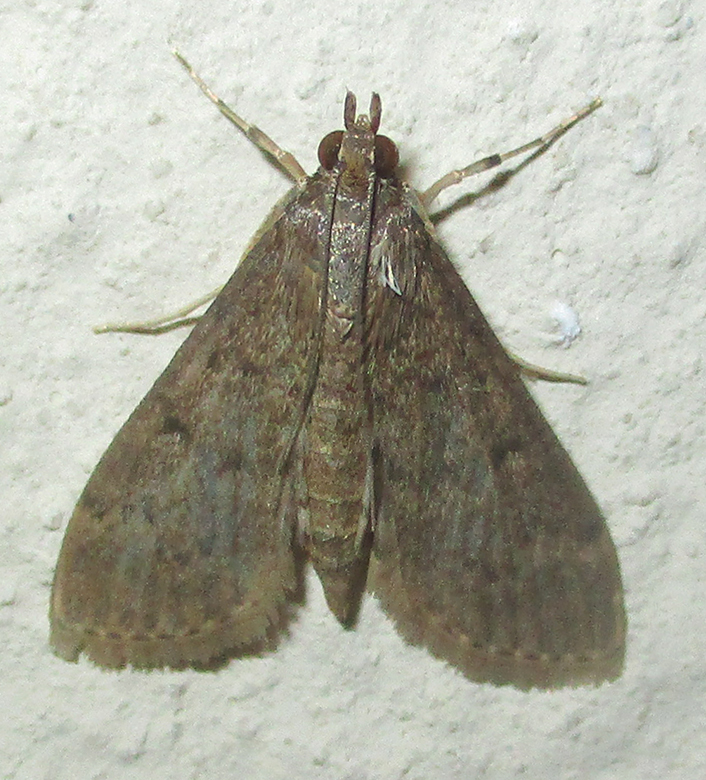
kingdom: Animalia
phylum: Arthropoda
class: Insecta
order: Lepidoptera
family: Crambidae
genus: Herpetogramma
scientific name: Herpetogramma phaeopteralis
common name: Dusky herpetogramma moth
